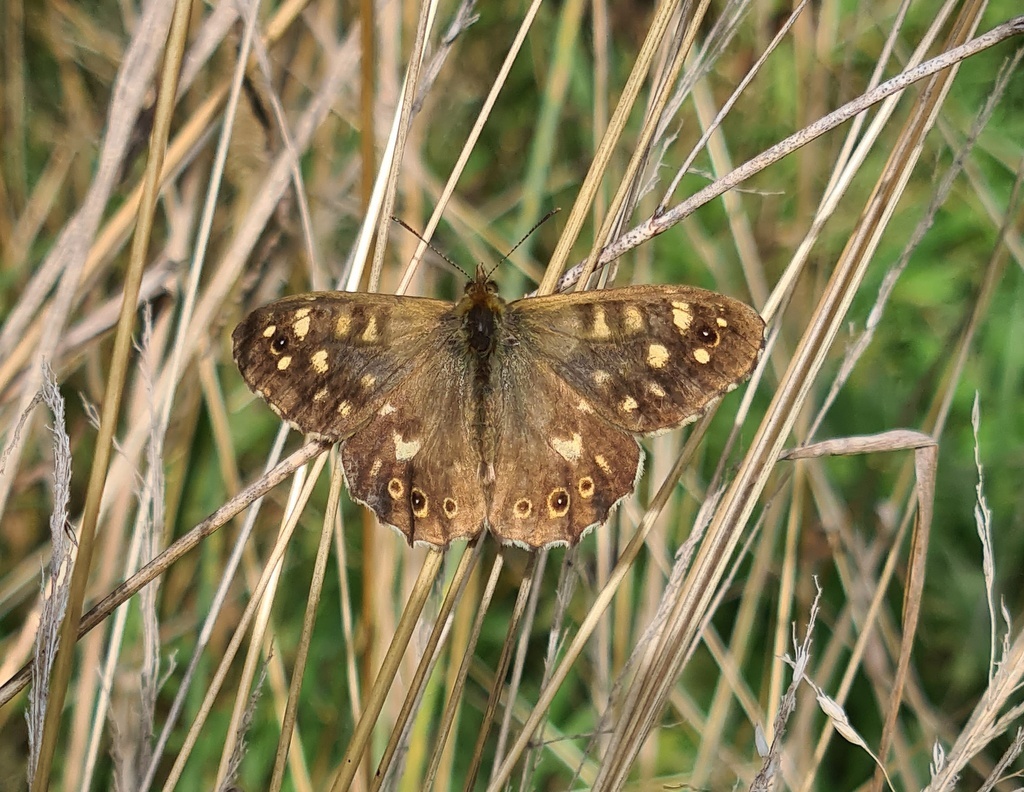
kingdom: Animalia
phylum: Arthropoda
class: Insecta
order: Lepidoptera
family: Nymphalidae
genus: Pararge
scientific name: Pararge aegeria
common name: Speckled wood
